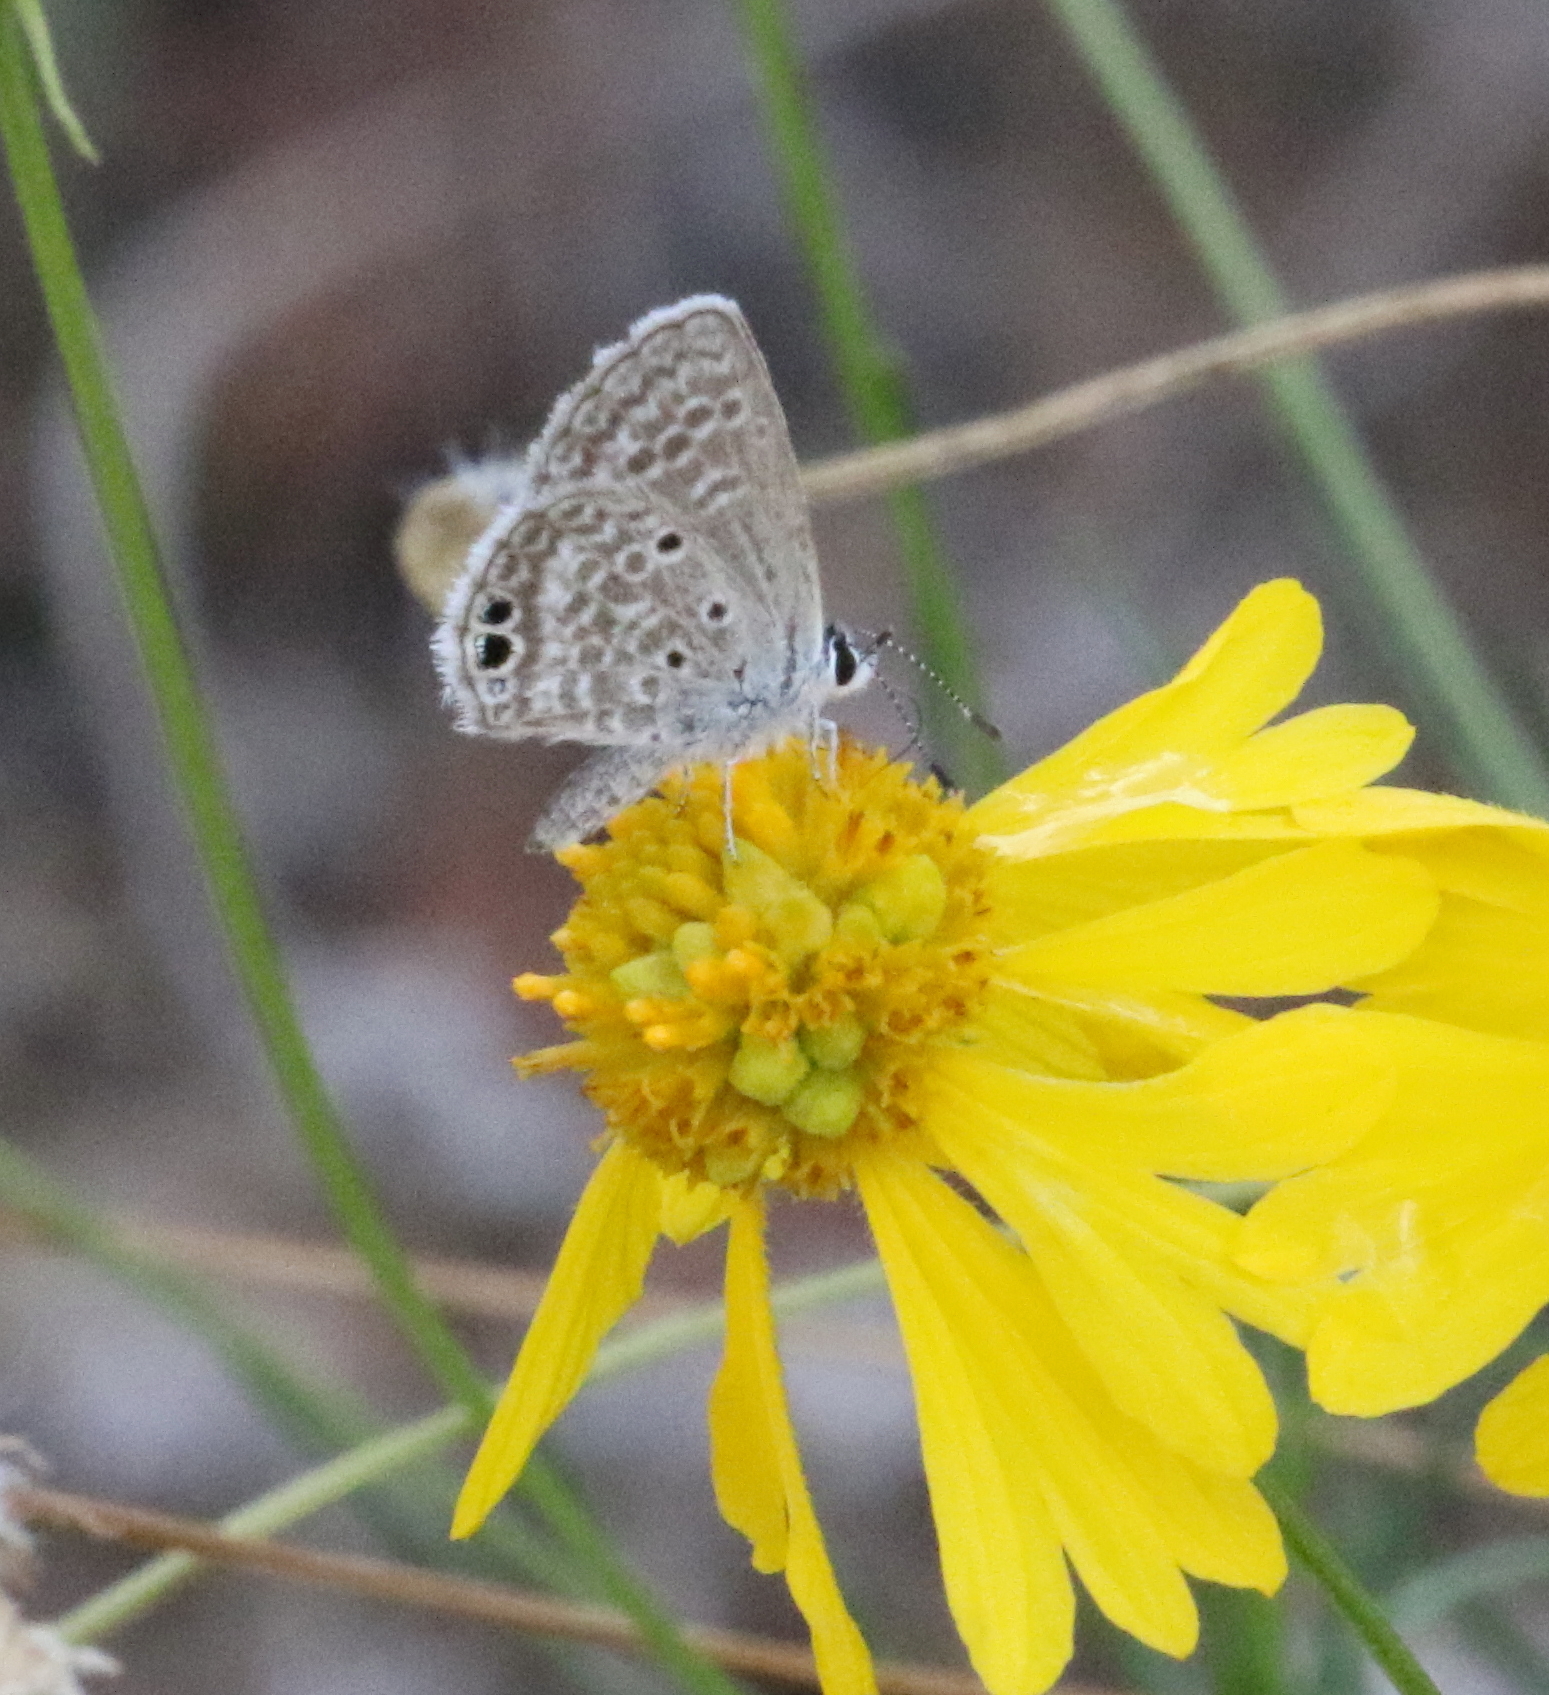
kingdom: Animalia
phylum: Arthropoda
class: Insecta
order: Lepidoptera
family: Lycaenidae
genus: Hemiargus
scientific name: Hemiargus ceraunus
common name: Ceraunus blue
